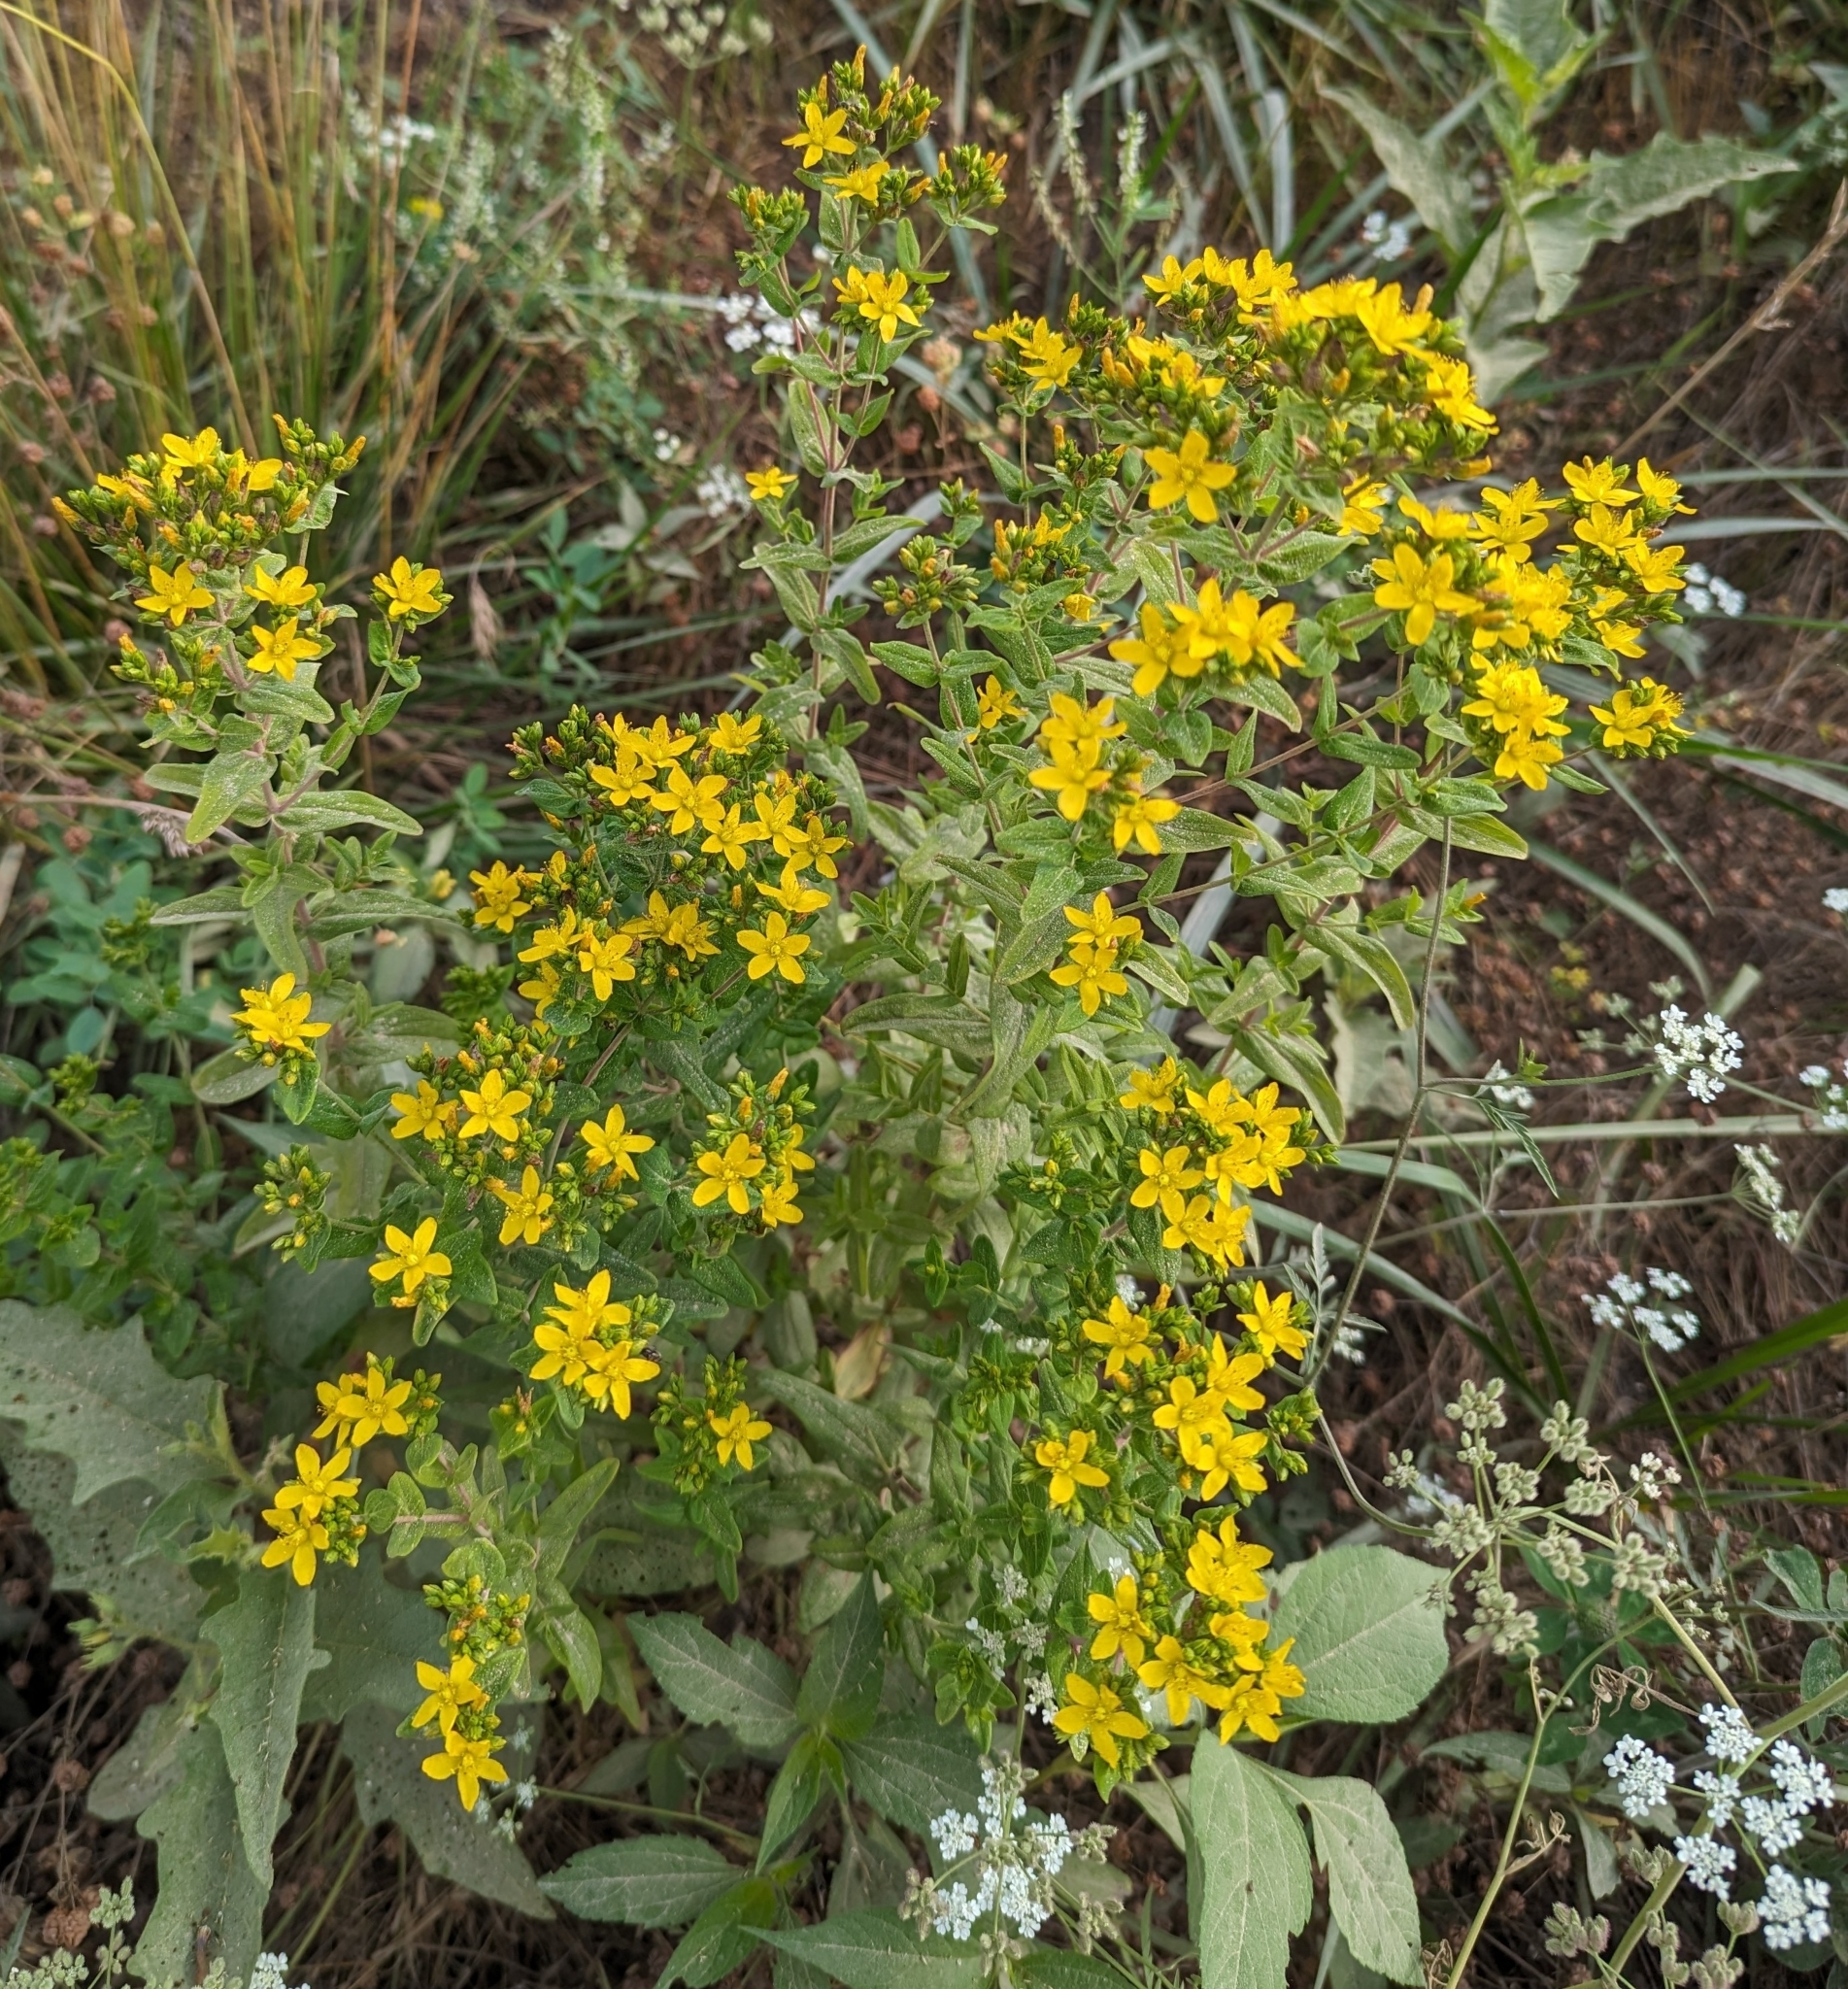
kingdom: Plantae
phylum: Tracheophyta
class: Magnoliopsida
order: Malpighiales
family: Hypericaceae
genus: Hypericum
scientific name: Hypericum punctatum
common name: Spotted st. john's-wort
